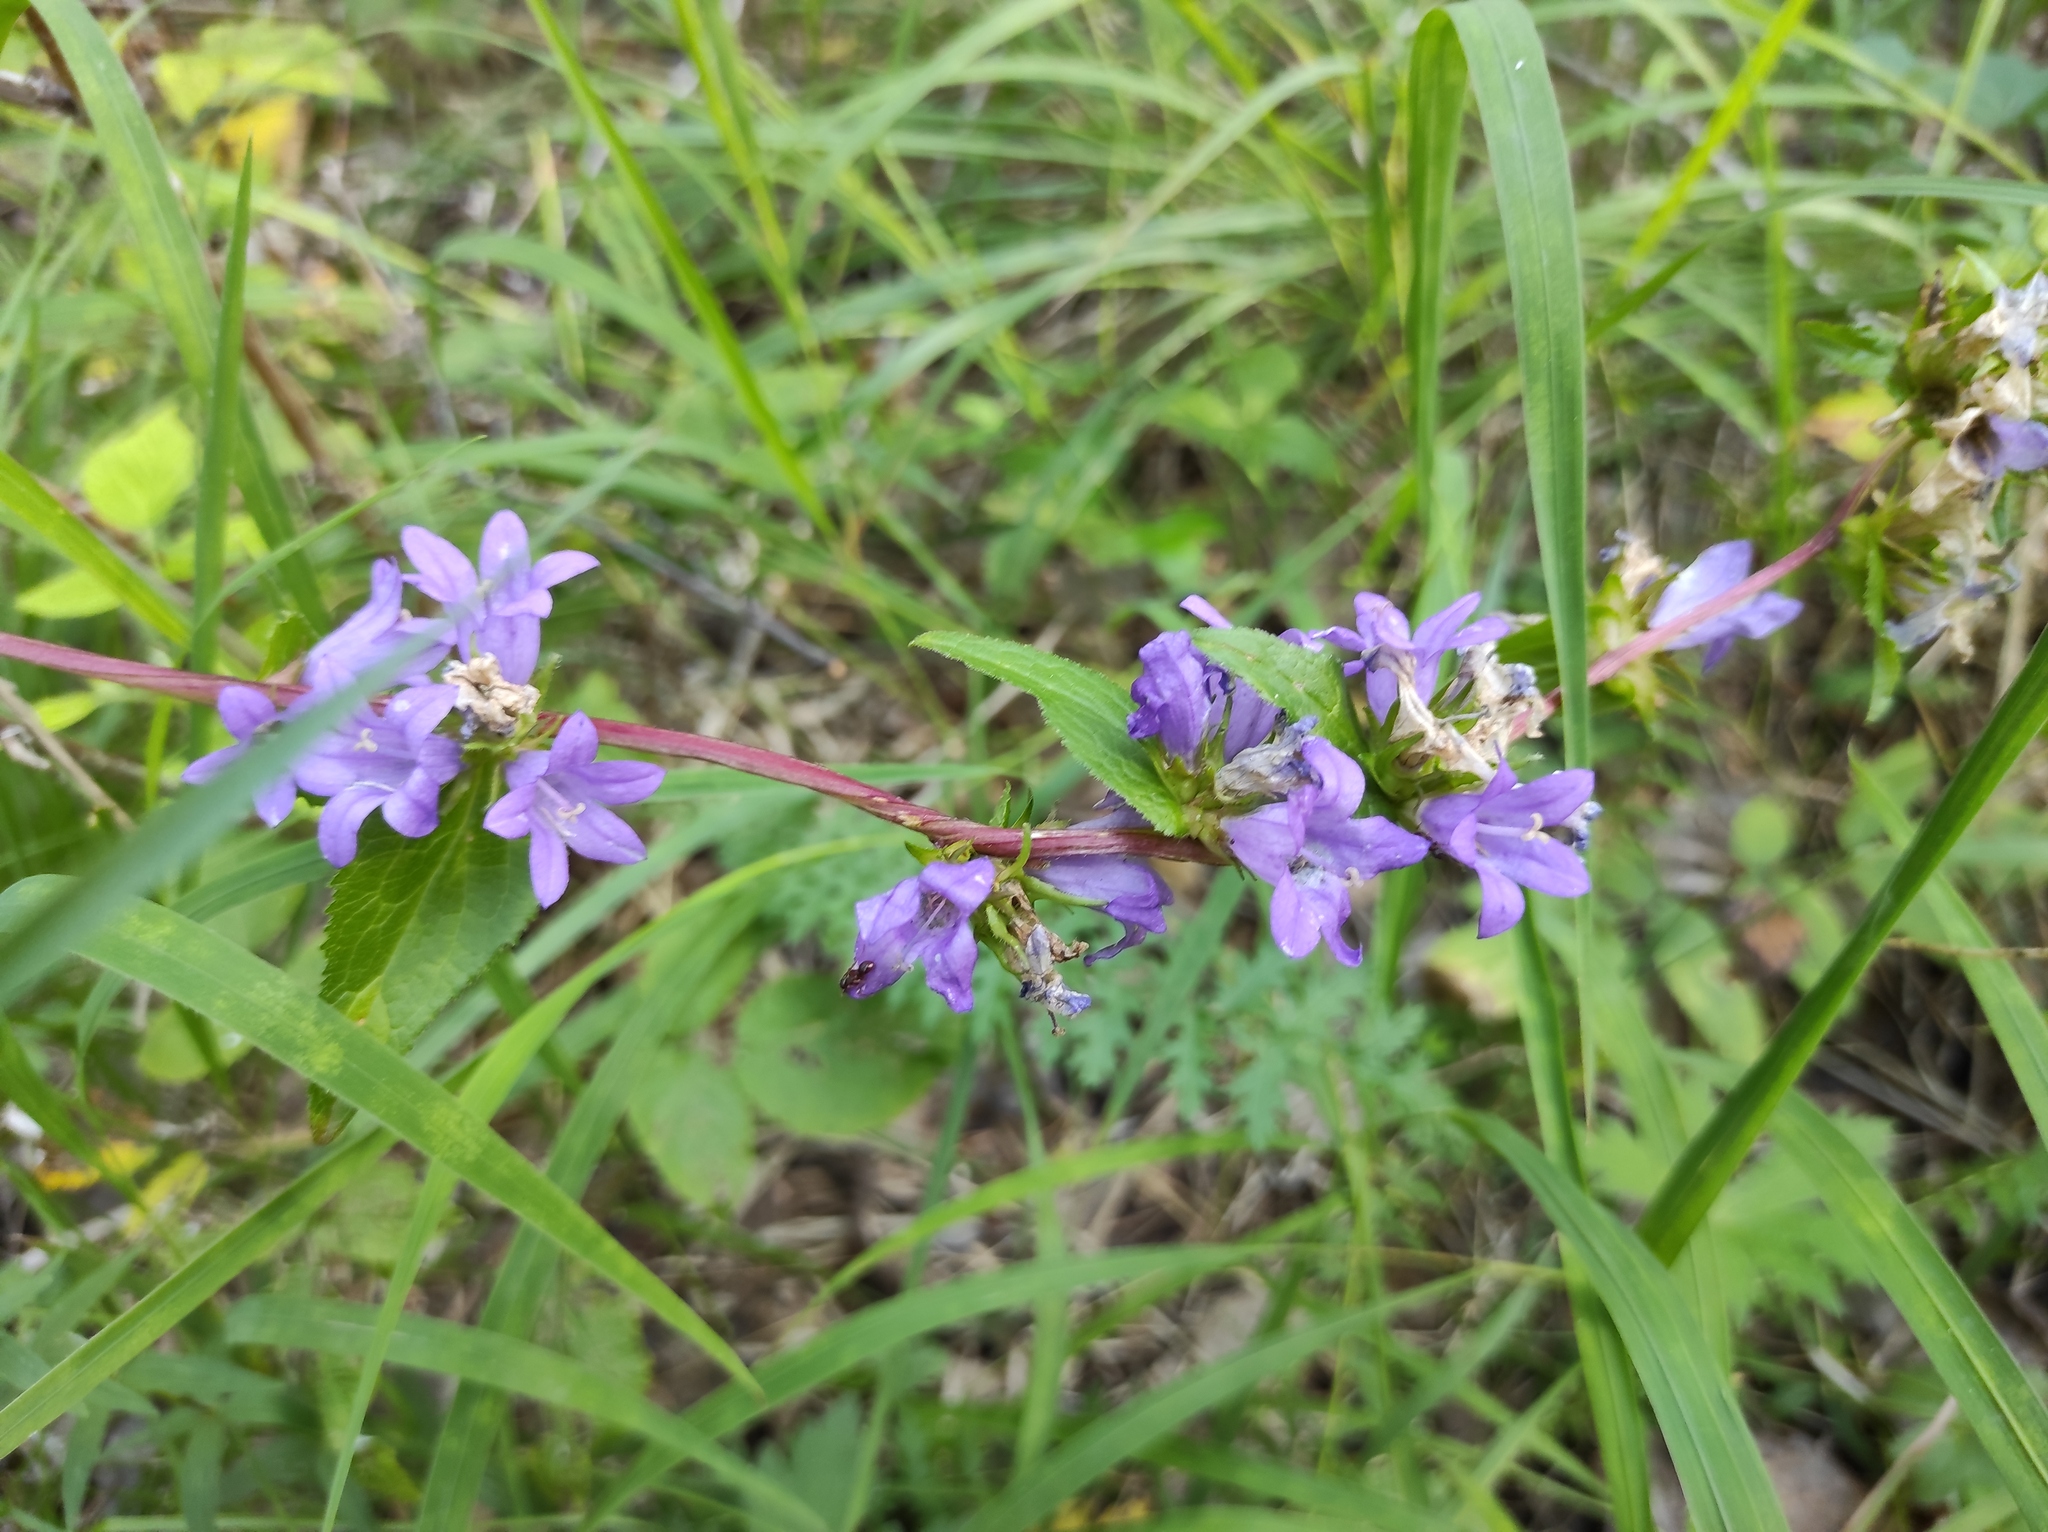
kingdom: Plantae
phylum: Tracheophyta
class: Magnoliopsida
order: Asterales
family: Campanulaceae
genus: Campanula
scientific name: Campanula glomerata
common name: Clustered bellflower
